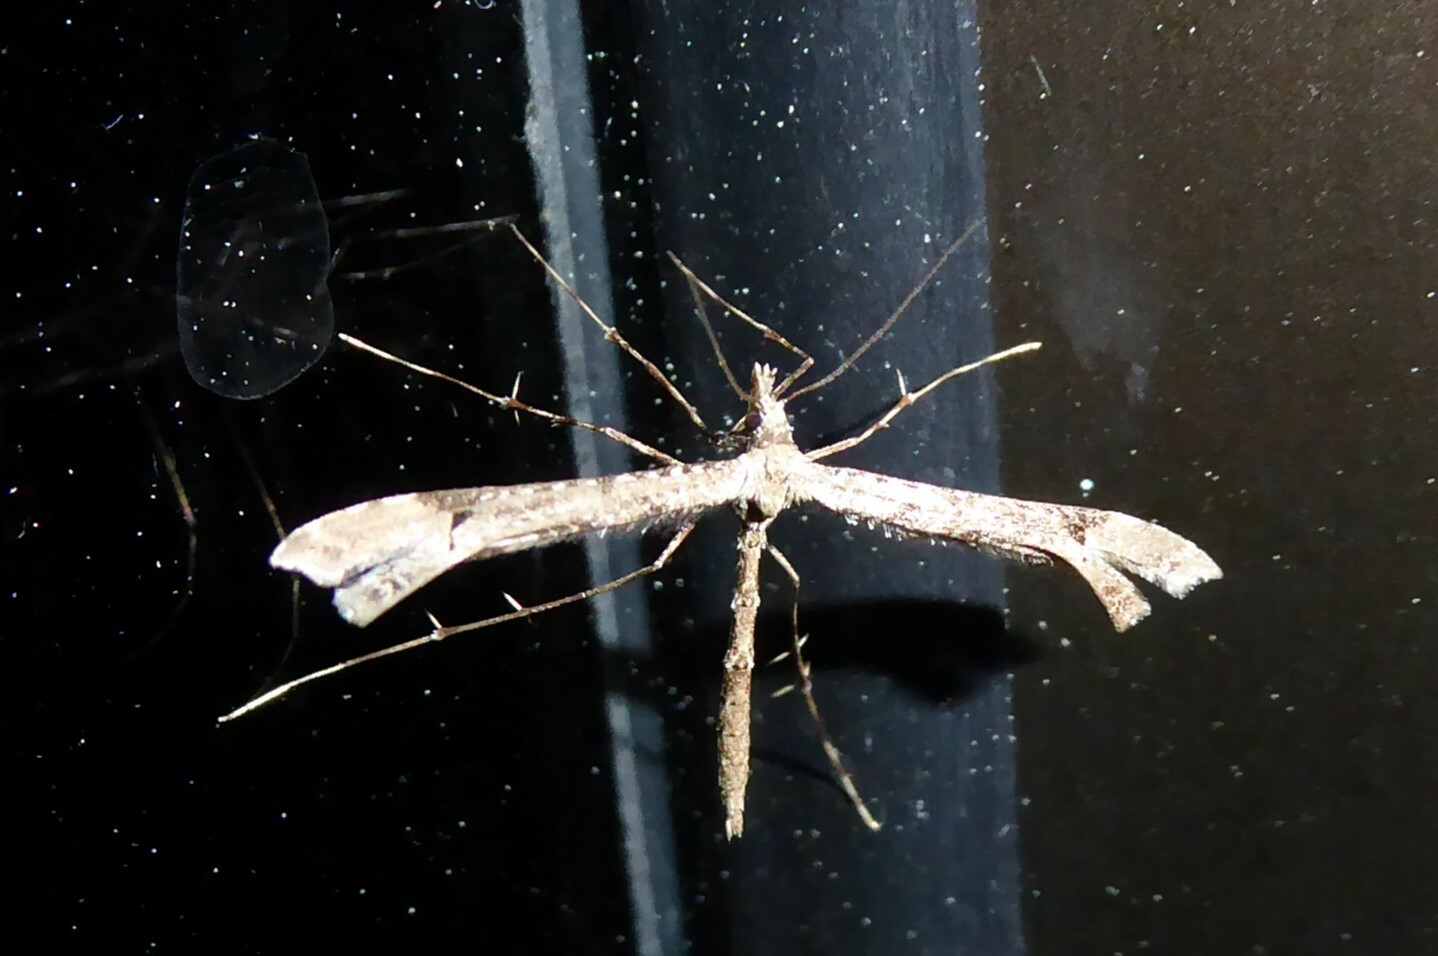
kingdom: Animalia
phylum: Arthropoda
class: Insecta
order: Lepidoptera
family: Pterophoridae
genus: Amblyptilia
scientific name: Amblyptilia repletalis
